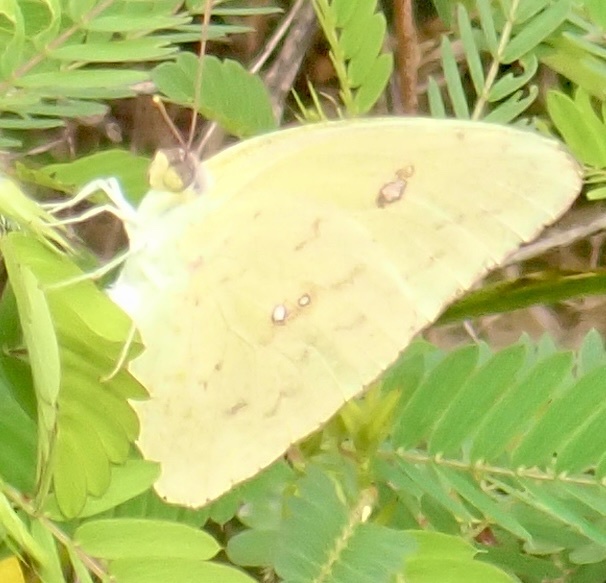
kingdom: Animalia
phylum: Arthropoda
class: Insecta
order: Lepidoptera
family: Pieridae
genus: Phoebis
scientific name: Phoebis sennae
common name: Cloudless sulphur
